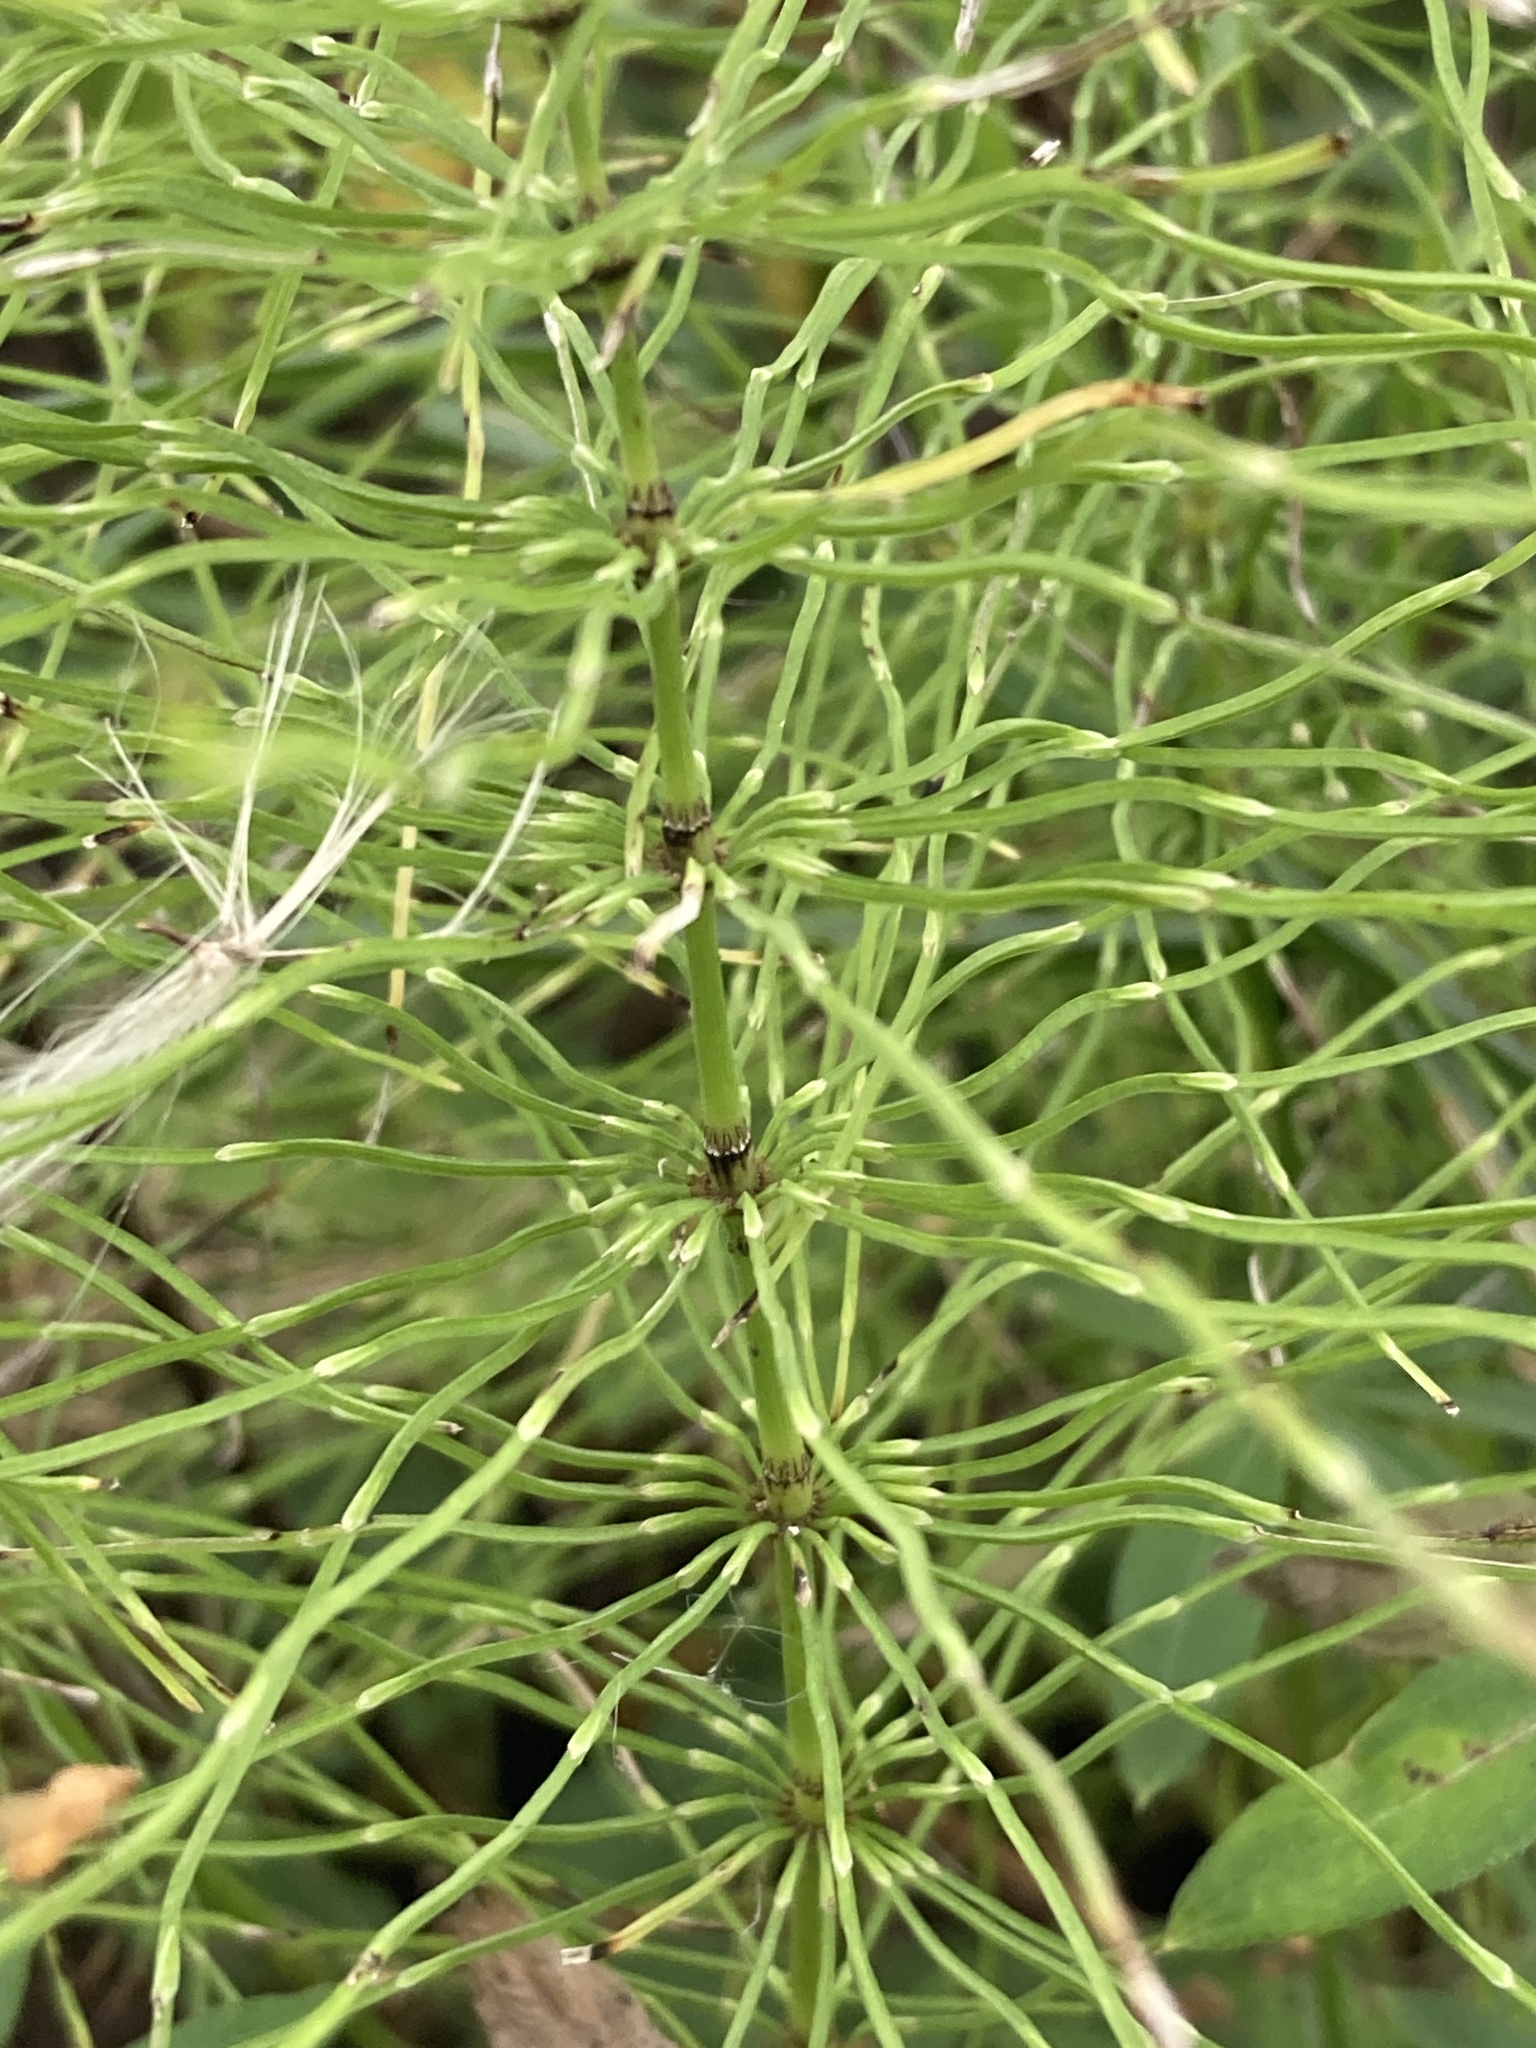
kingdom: Plantae
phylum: Tracheophyta
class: Polypodiopsida
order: Equisetales
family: Equisetaceae
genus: Equisetum
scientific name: Equisetum pratense
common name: Meadow horsetail
